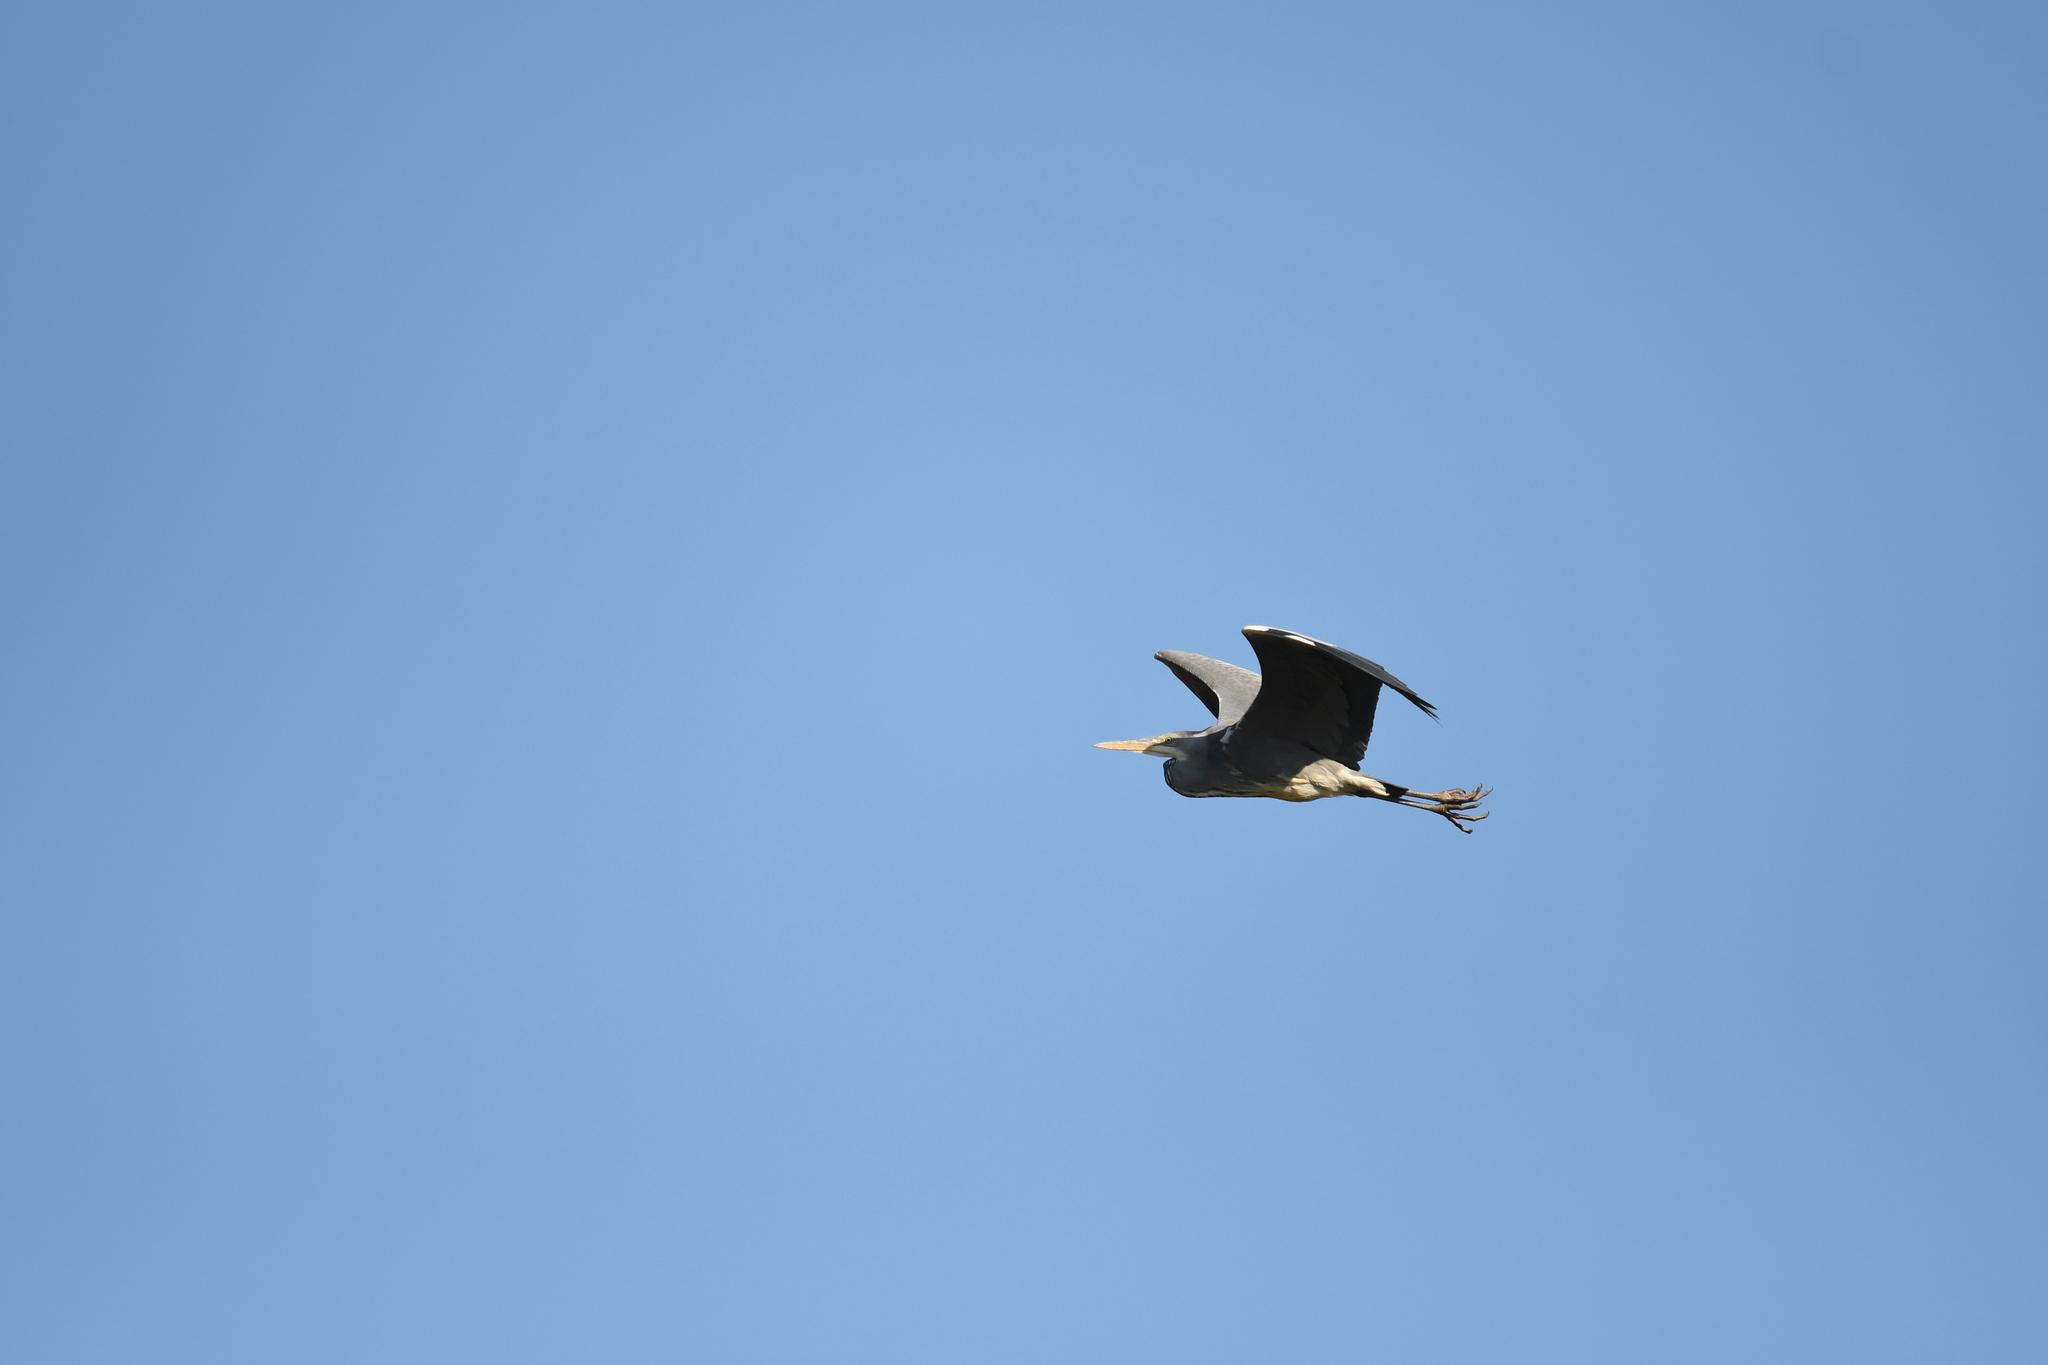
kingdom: Animalia
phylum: Chordata
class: Aves
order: Pelecaniformes
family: Ardeidae
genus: Ardea
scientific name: Ardea cinerea
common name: Grey heron
